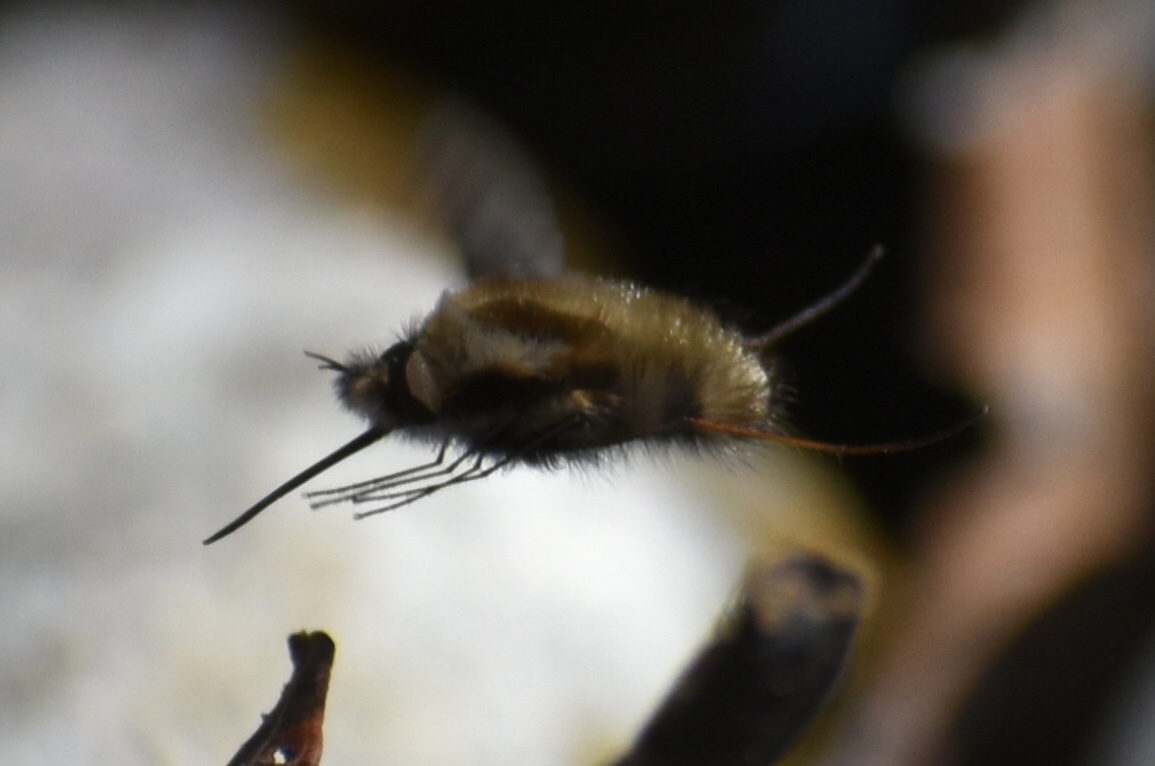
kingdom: Animalia
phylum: Arthropoda
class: Insecta
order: Diptera
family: Bombyliidae
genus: Bombylius
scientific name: Bombylius major
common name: Bee fly
